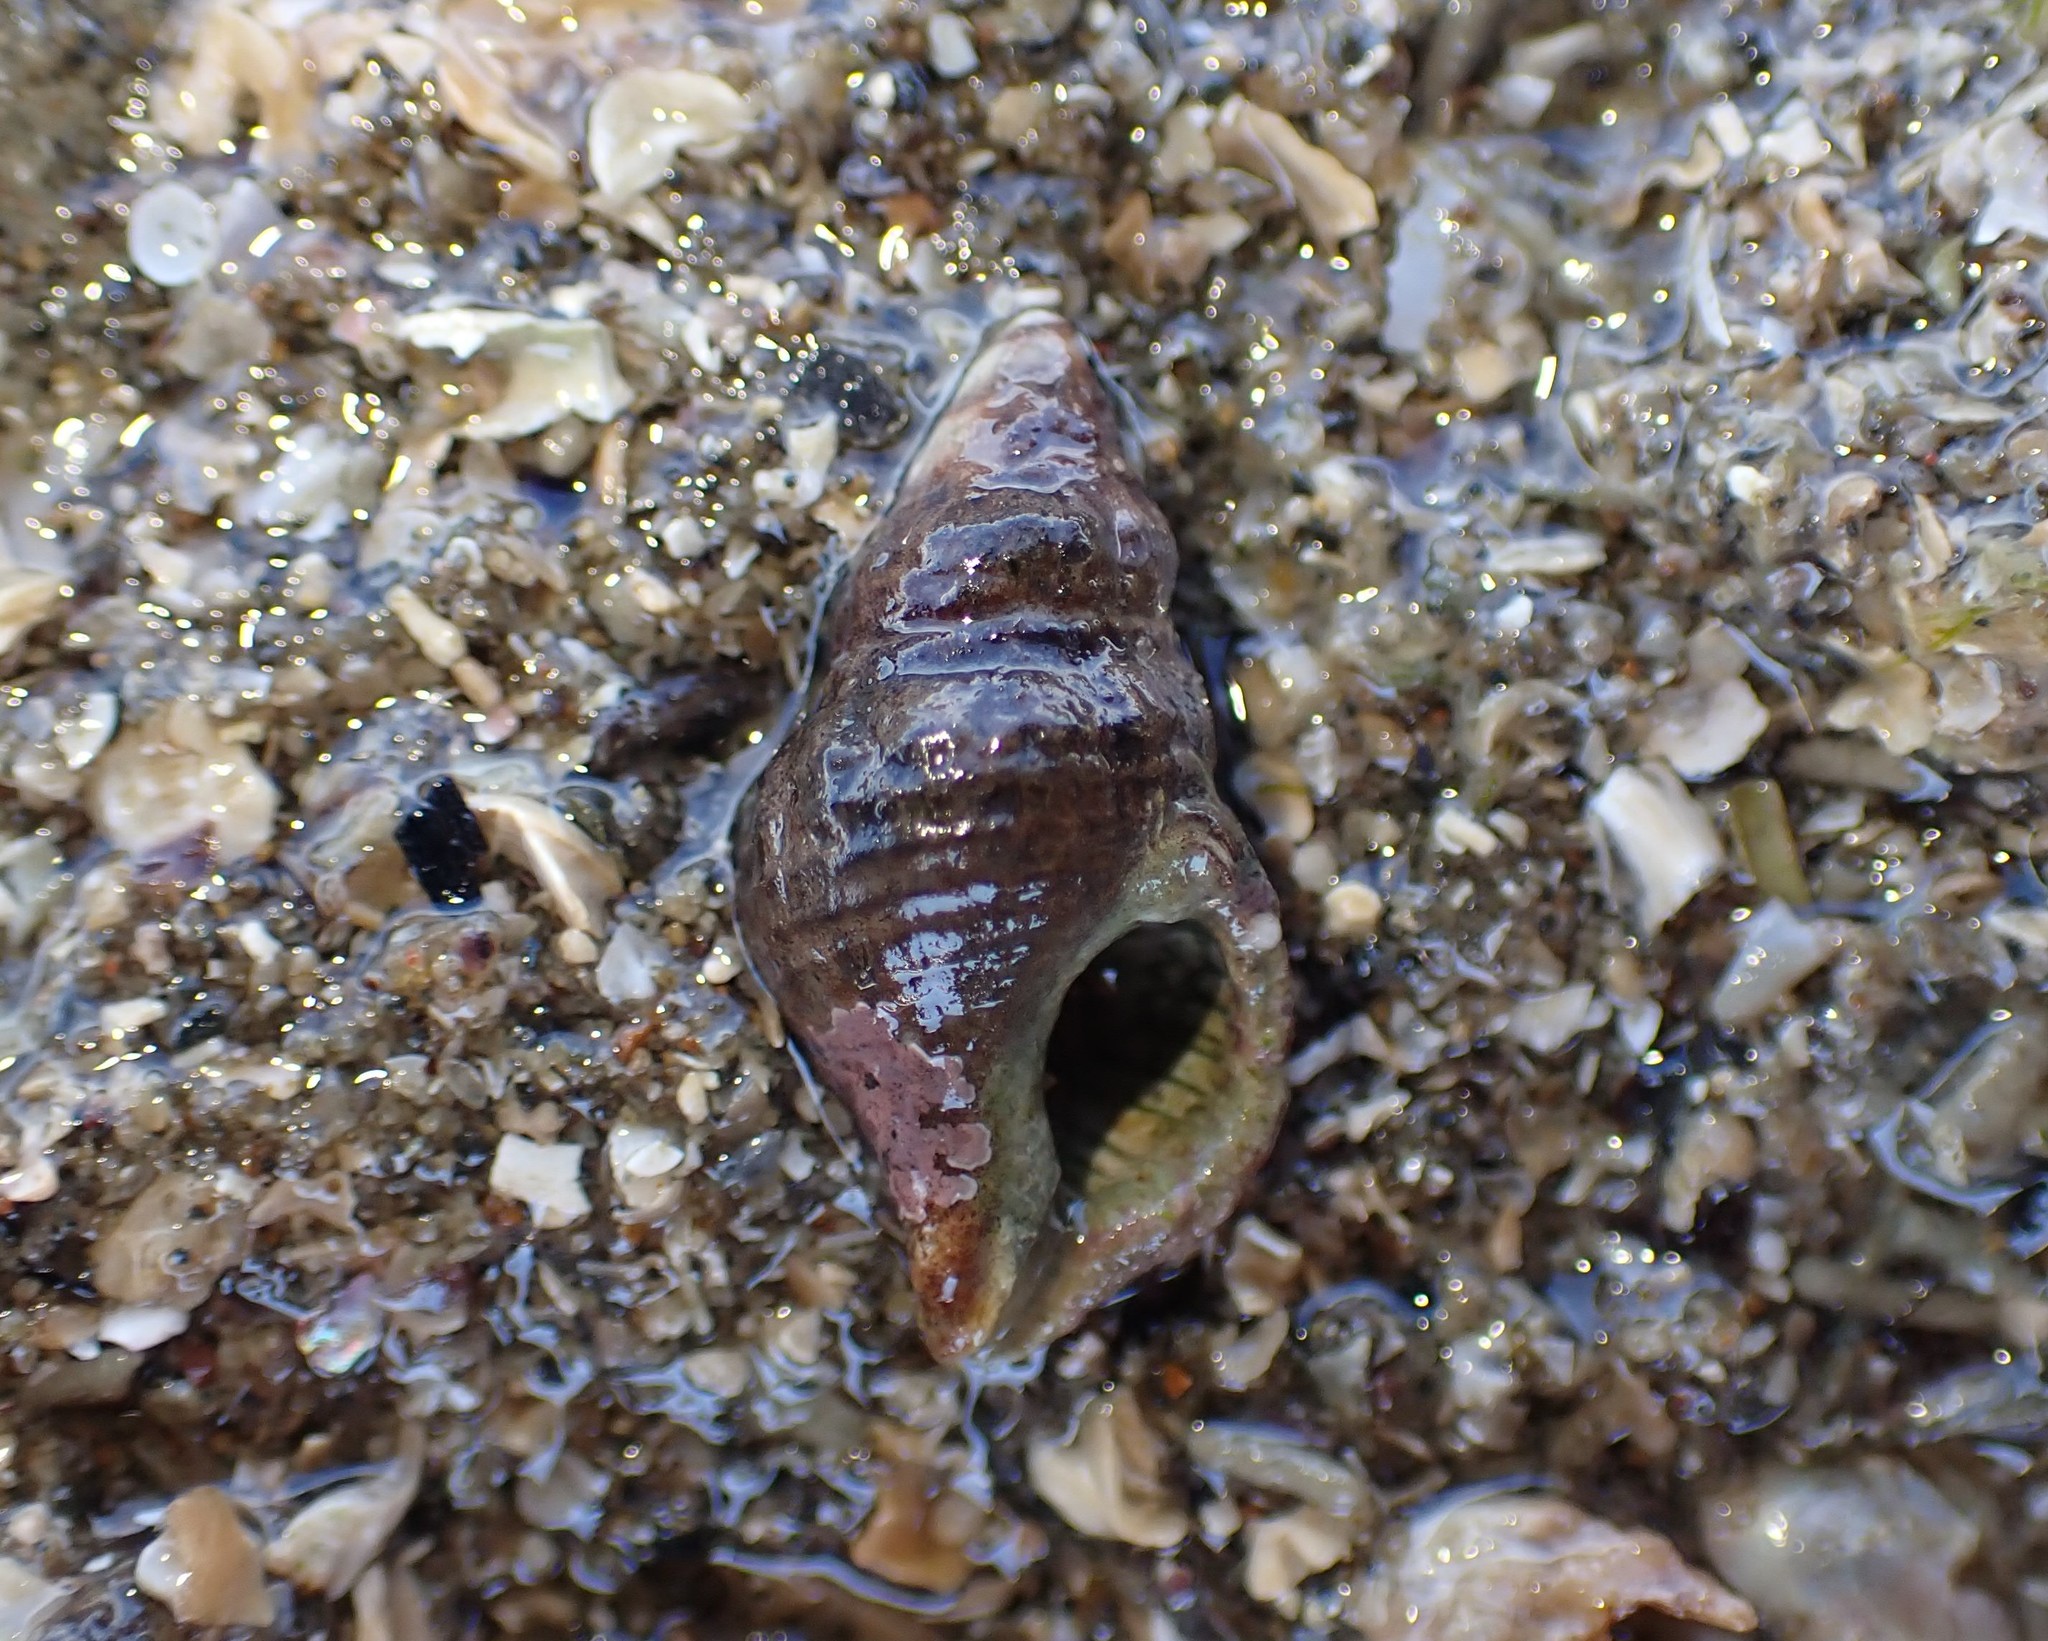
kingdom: Animalia
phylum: Mollusca
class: Gastropoda
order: Neogastropoda
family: Fasciolariidae
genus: Taron
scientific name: Taron dubius
